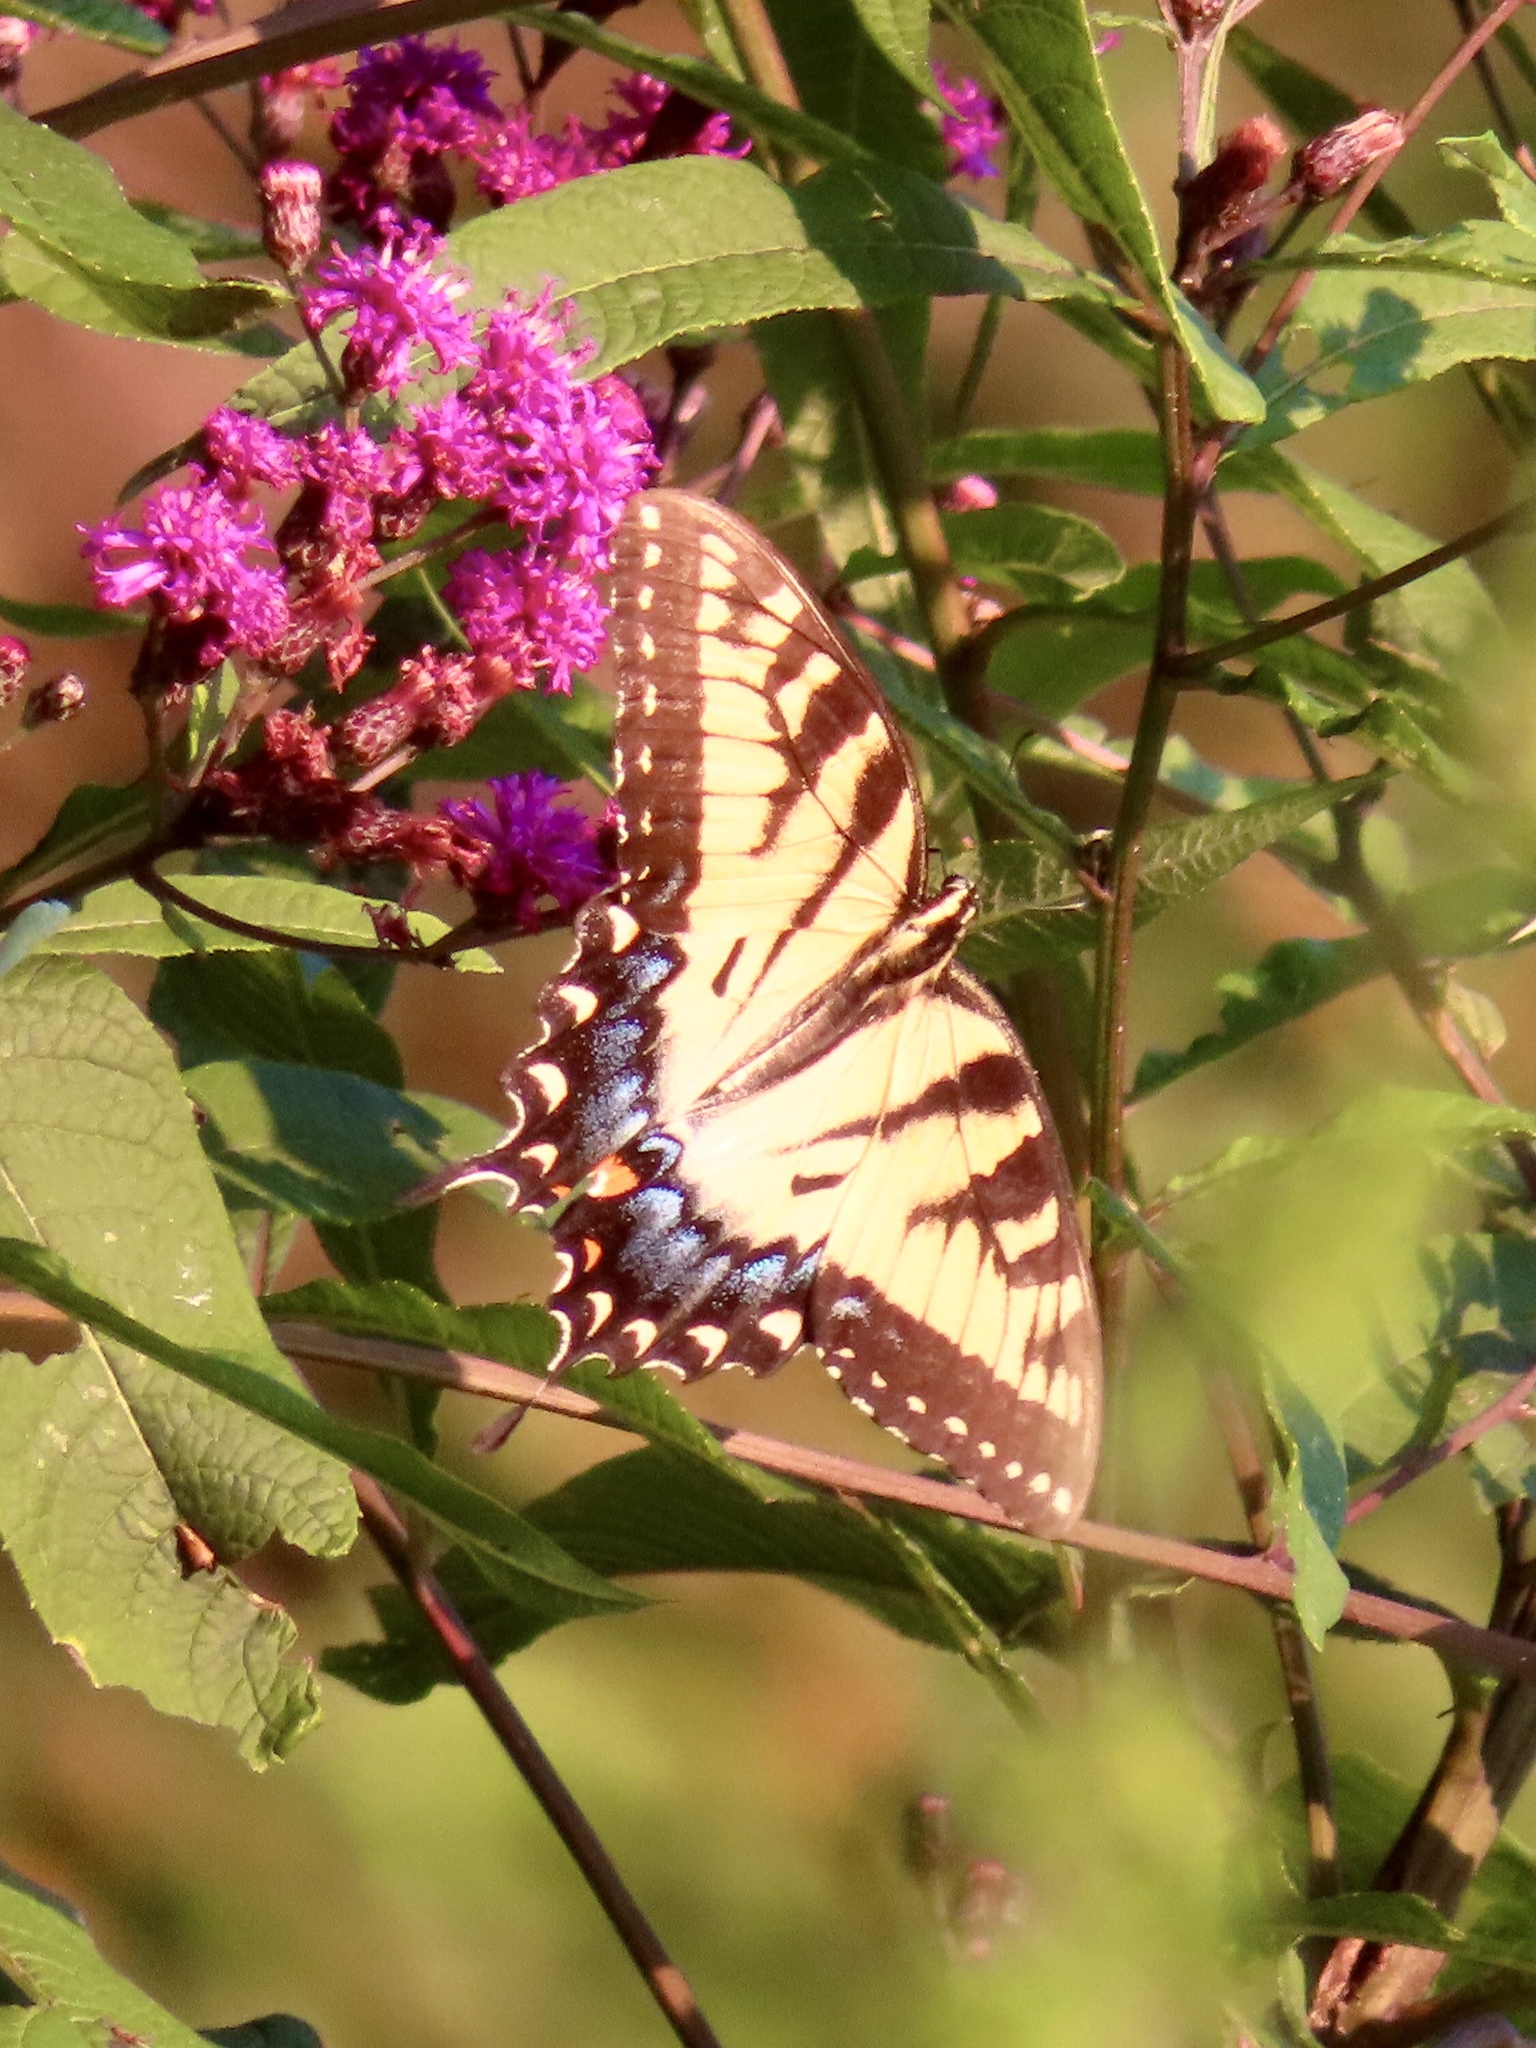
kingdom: Animalia
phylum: Arthropoda
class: Insecta
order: Lepidoptera
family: Papilionidae
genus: Papilio
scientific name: Papilio glaucus
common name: Tiger swallowtail
